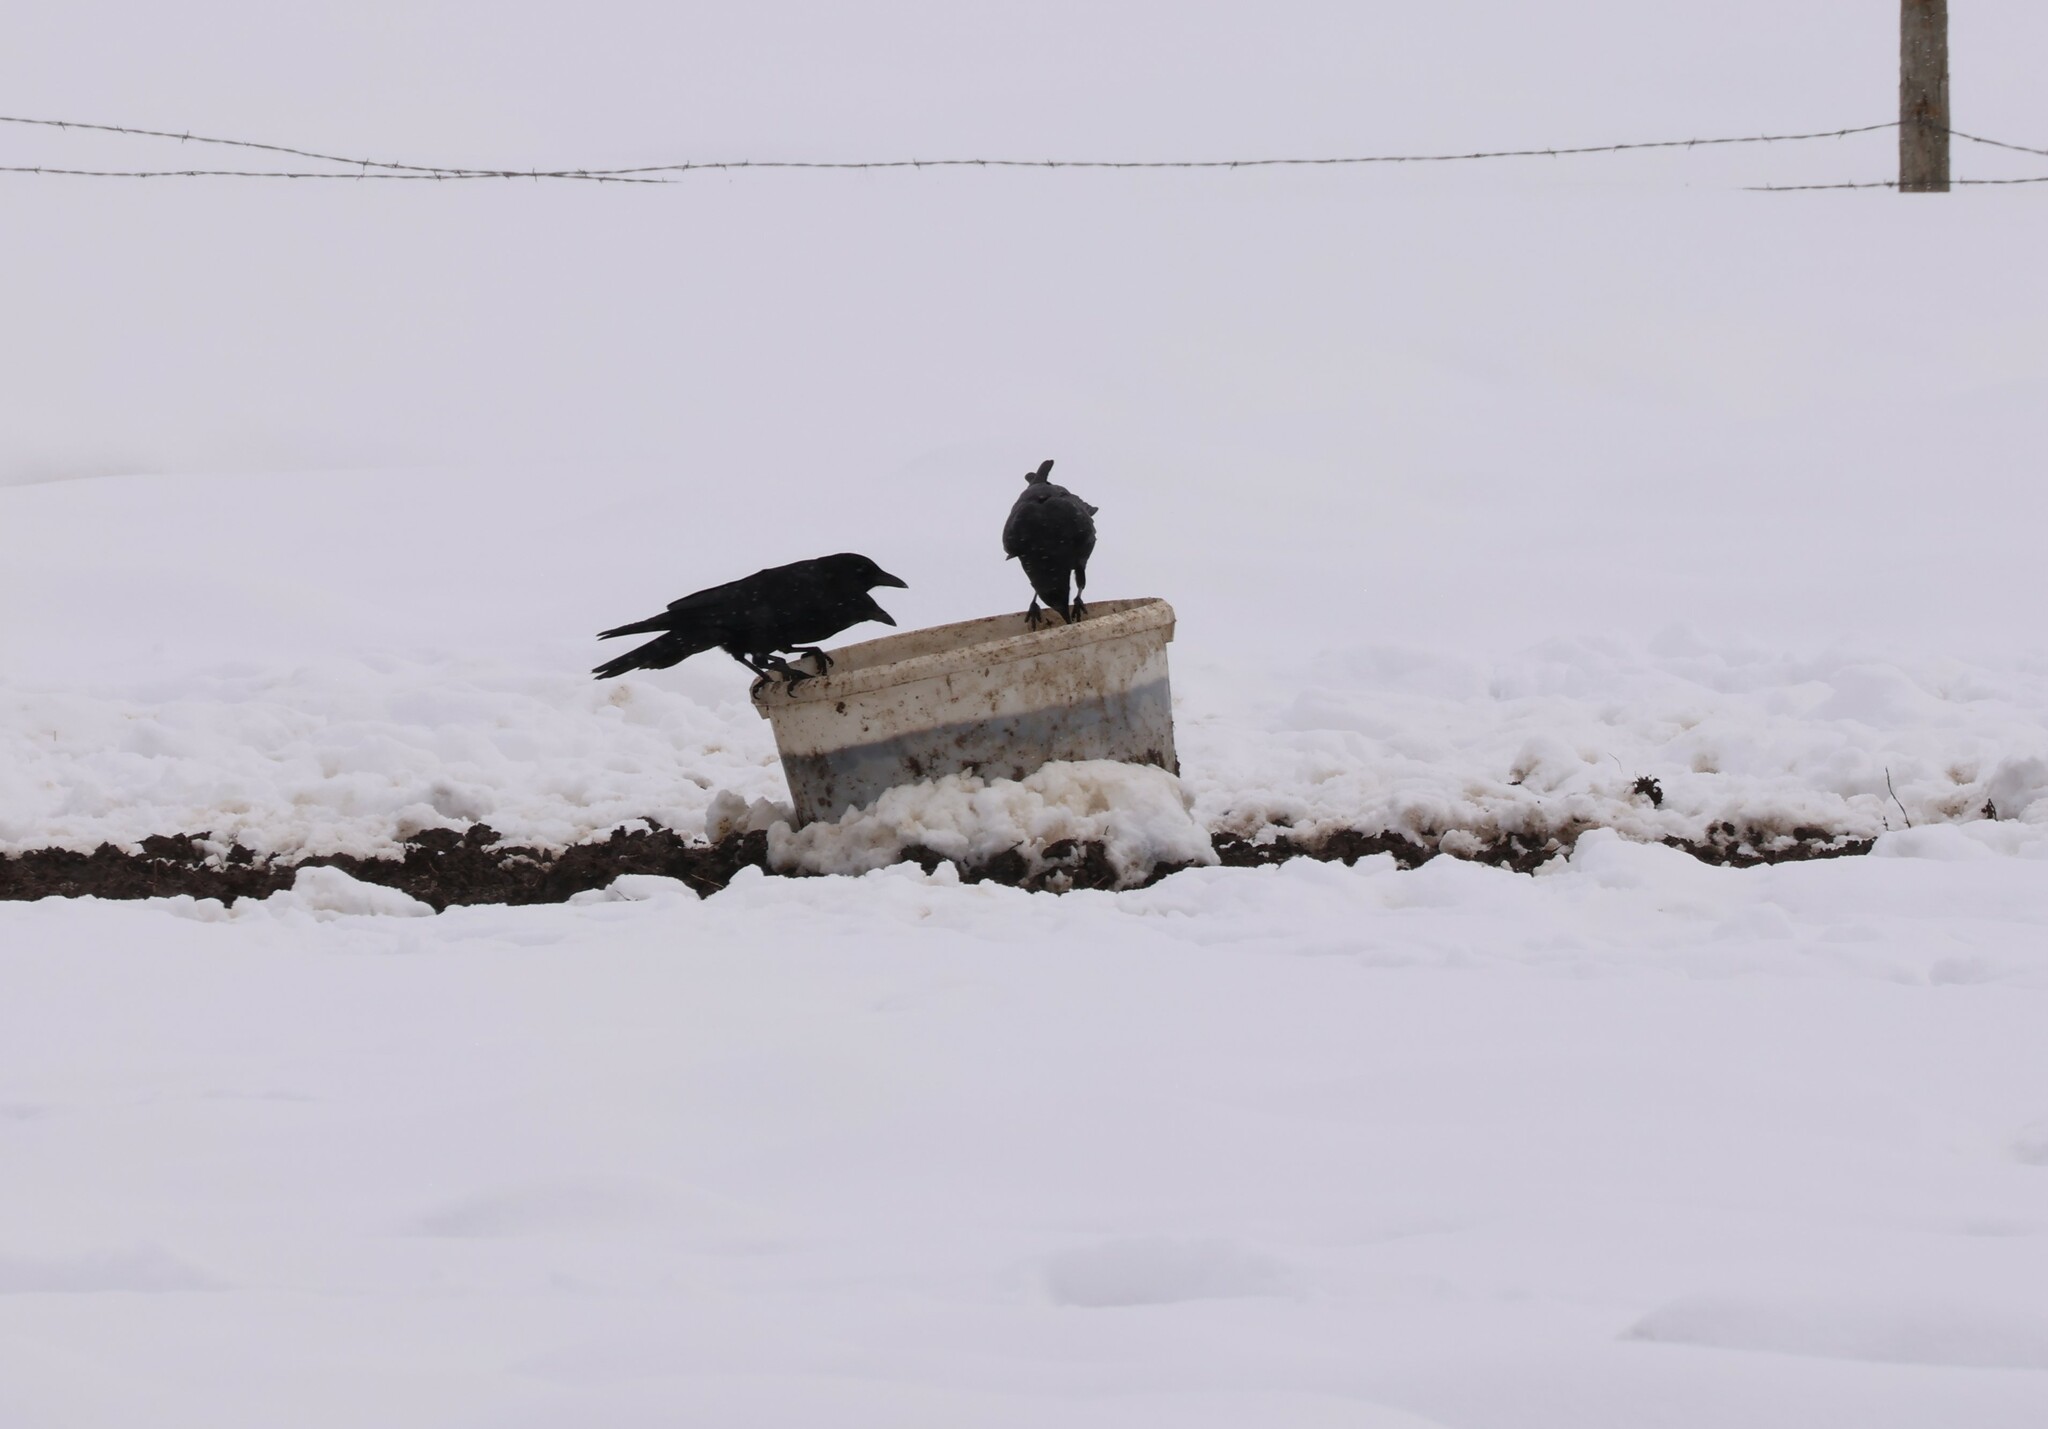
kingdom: Animalia
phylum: Chordata
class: Aves
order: Passeriformes
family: Corvidae
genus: Corvus
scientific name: Corvus corax
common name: Common raven
